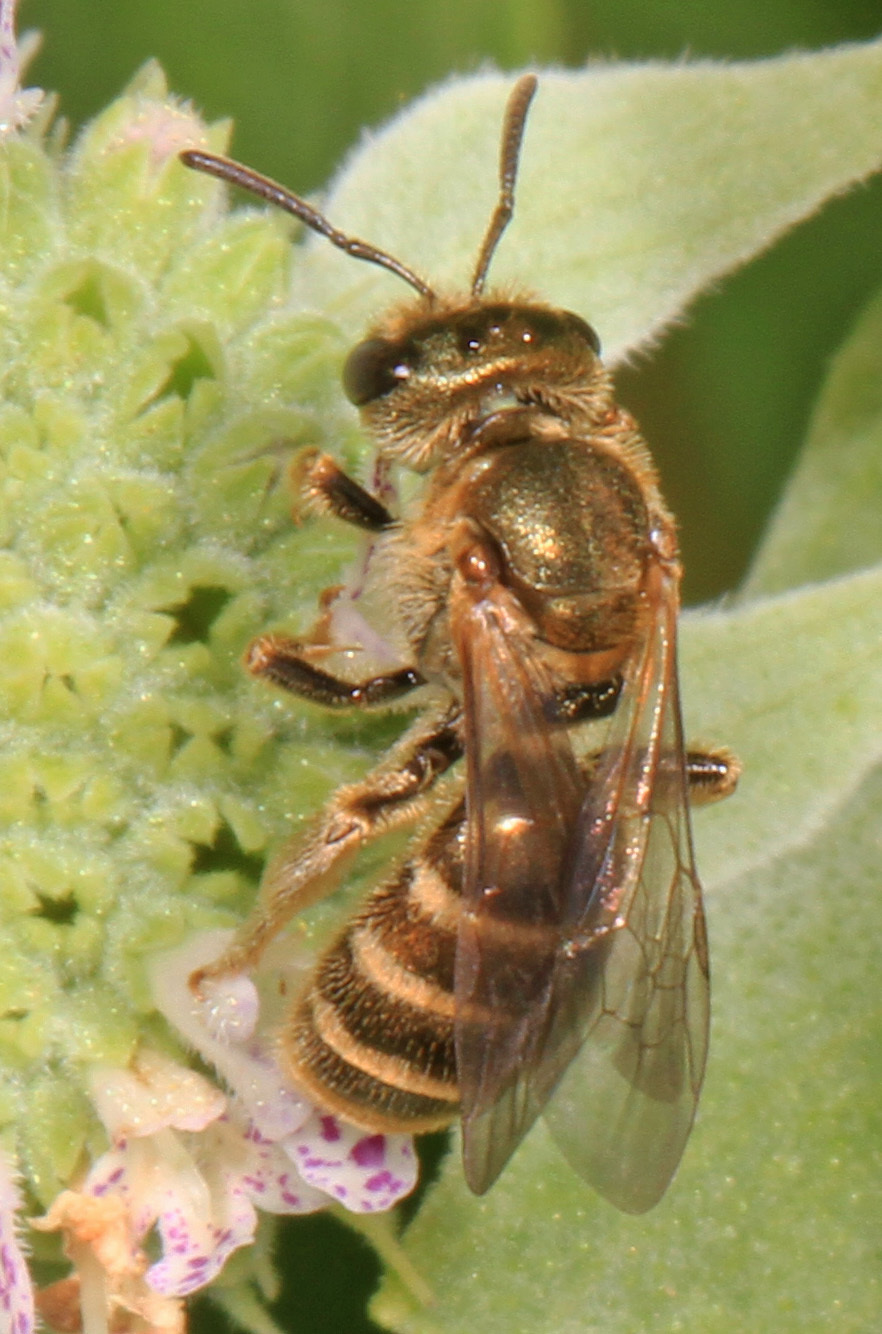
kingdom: Animalia
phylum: Arthropoda
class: Insecta
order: Hymenoptera
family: Halictidae
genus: Halictus
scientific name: Halictus confusus
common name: Southern bronze furrow bee
